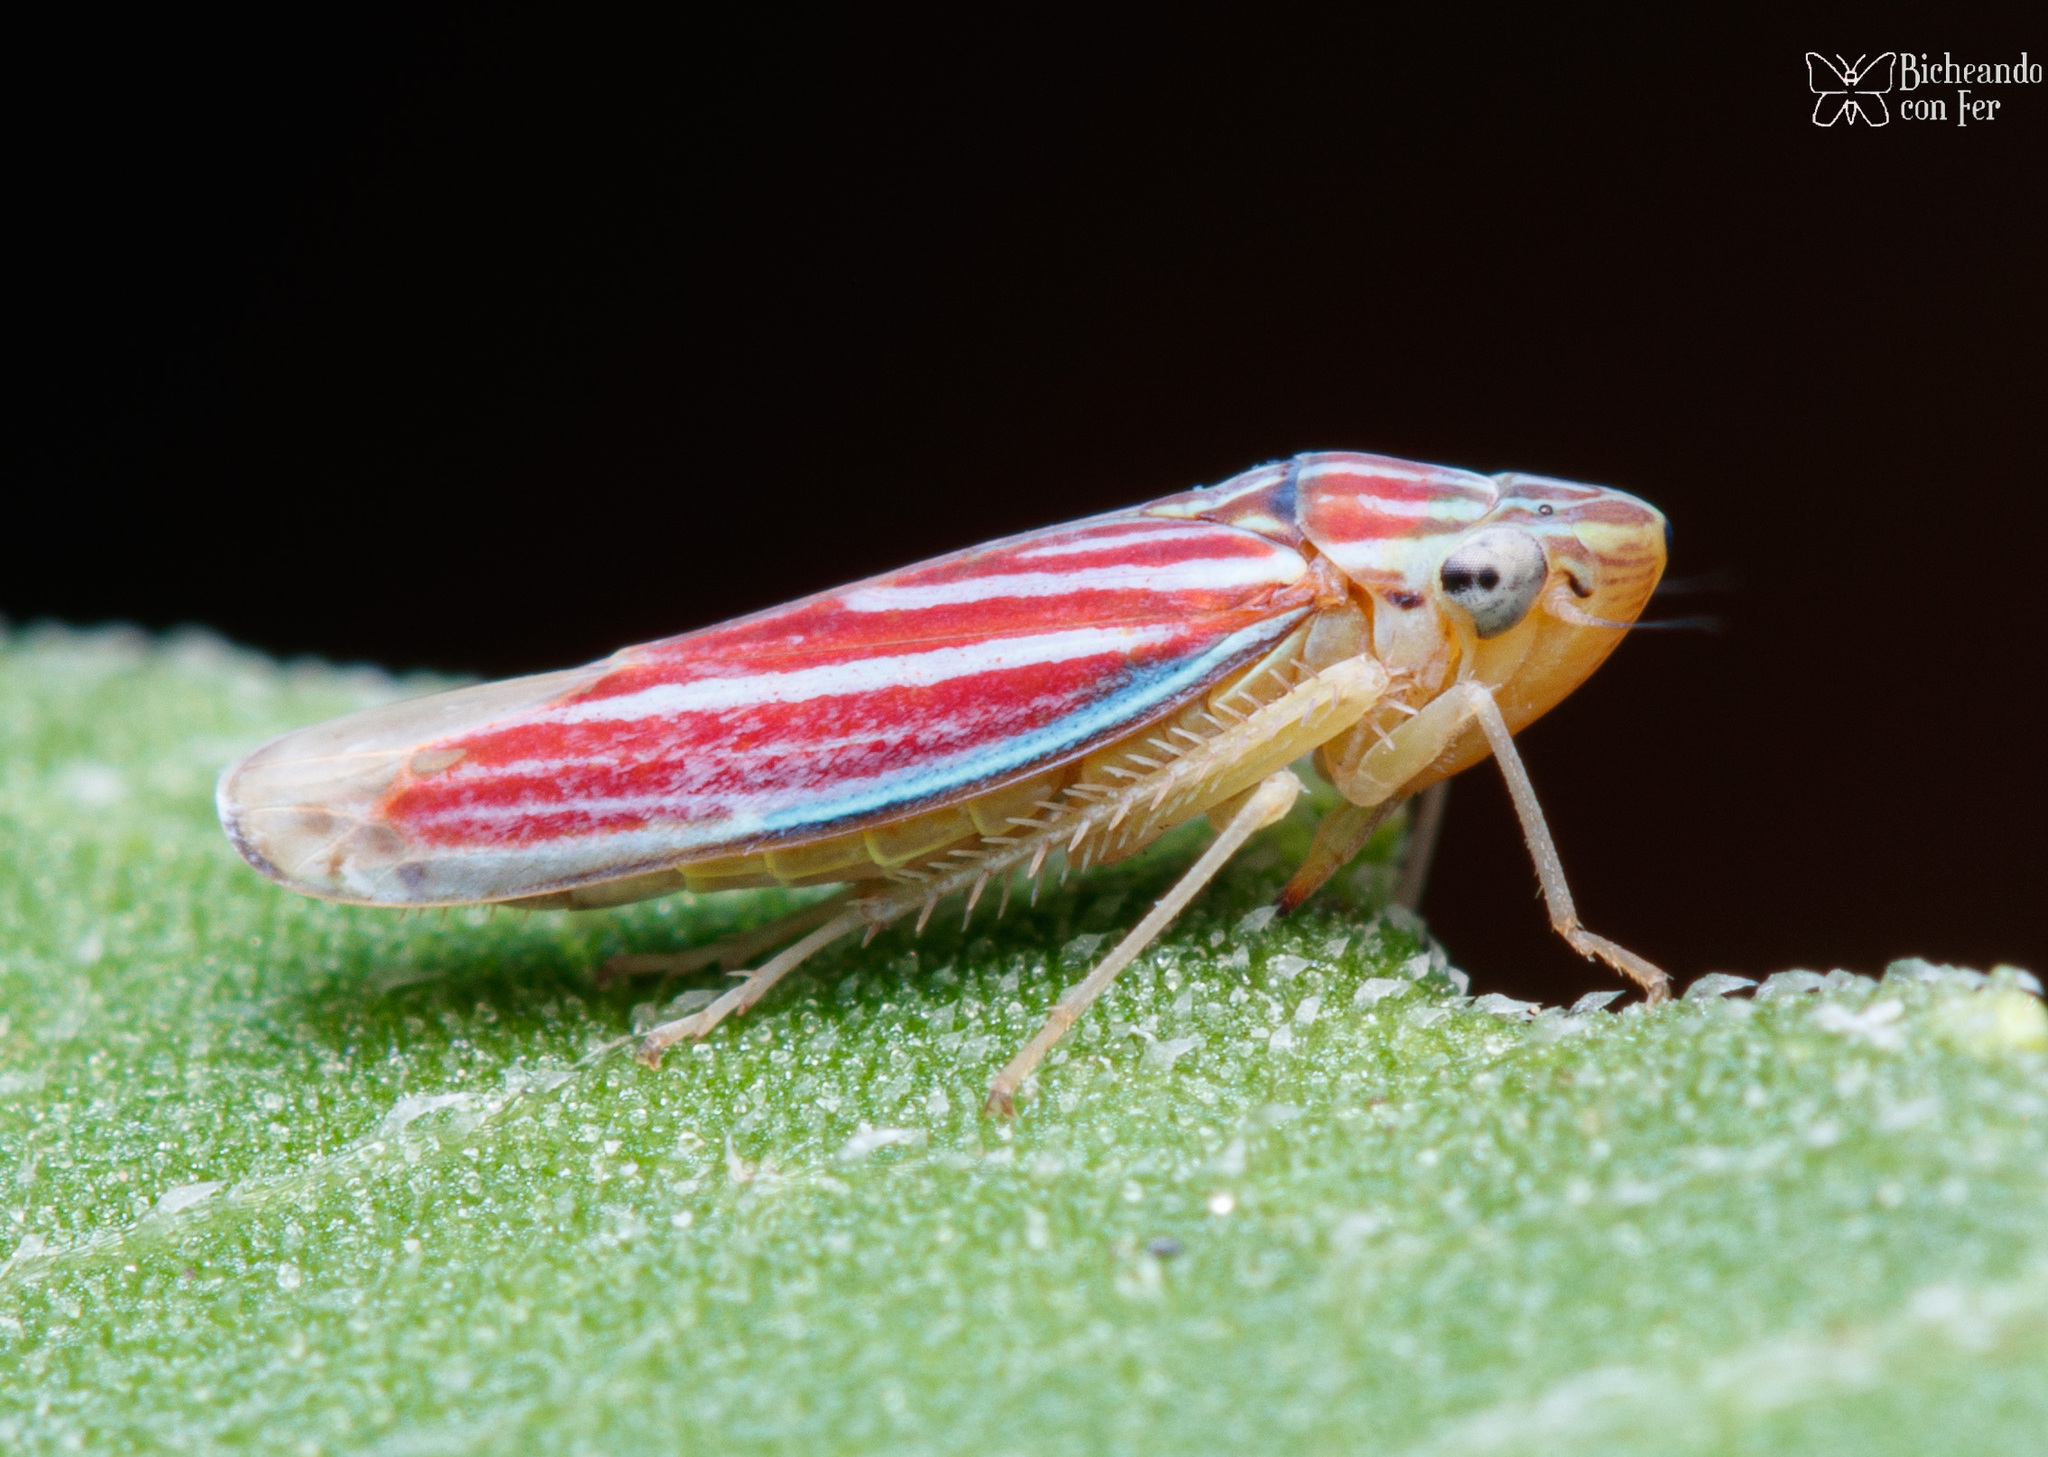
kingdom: Animalia
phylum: Arthropoda
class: Insecta
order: Hemiptera
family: Cicadellidae
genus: Sibovia
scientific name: Sibovia compta
